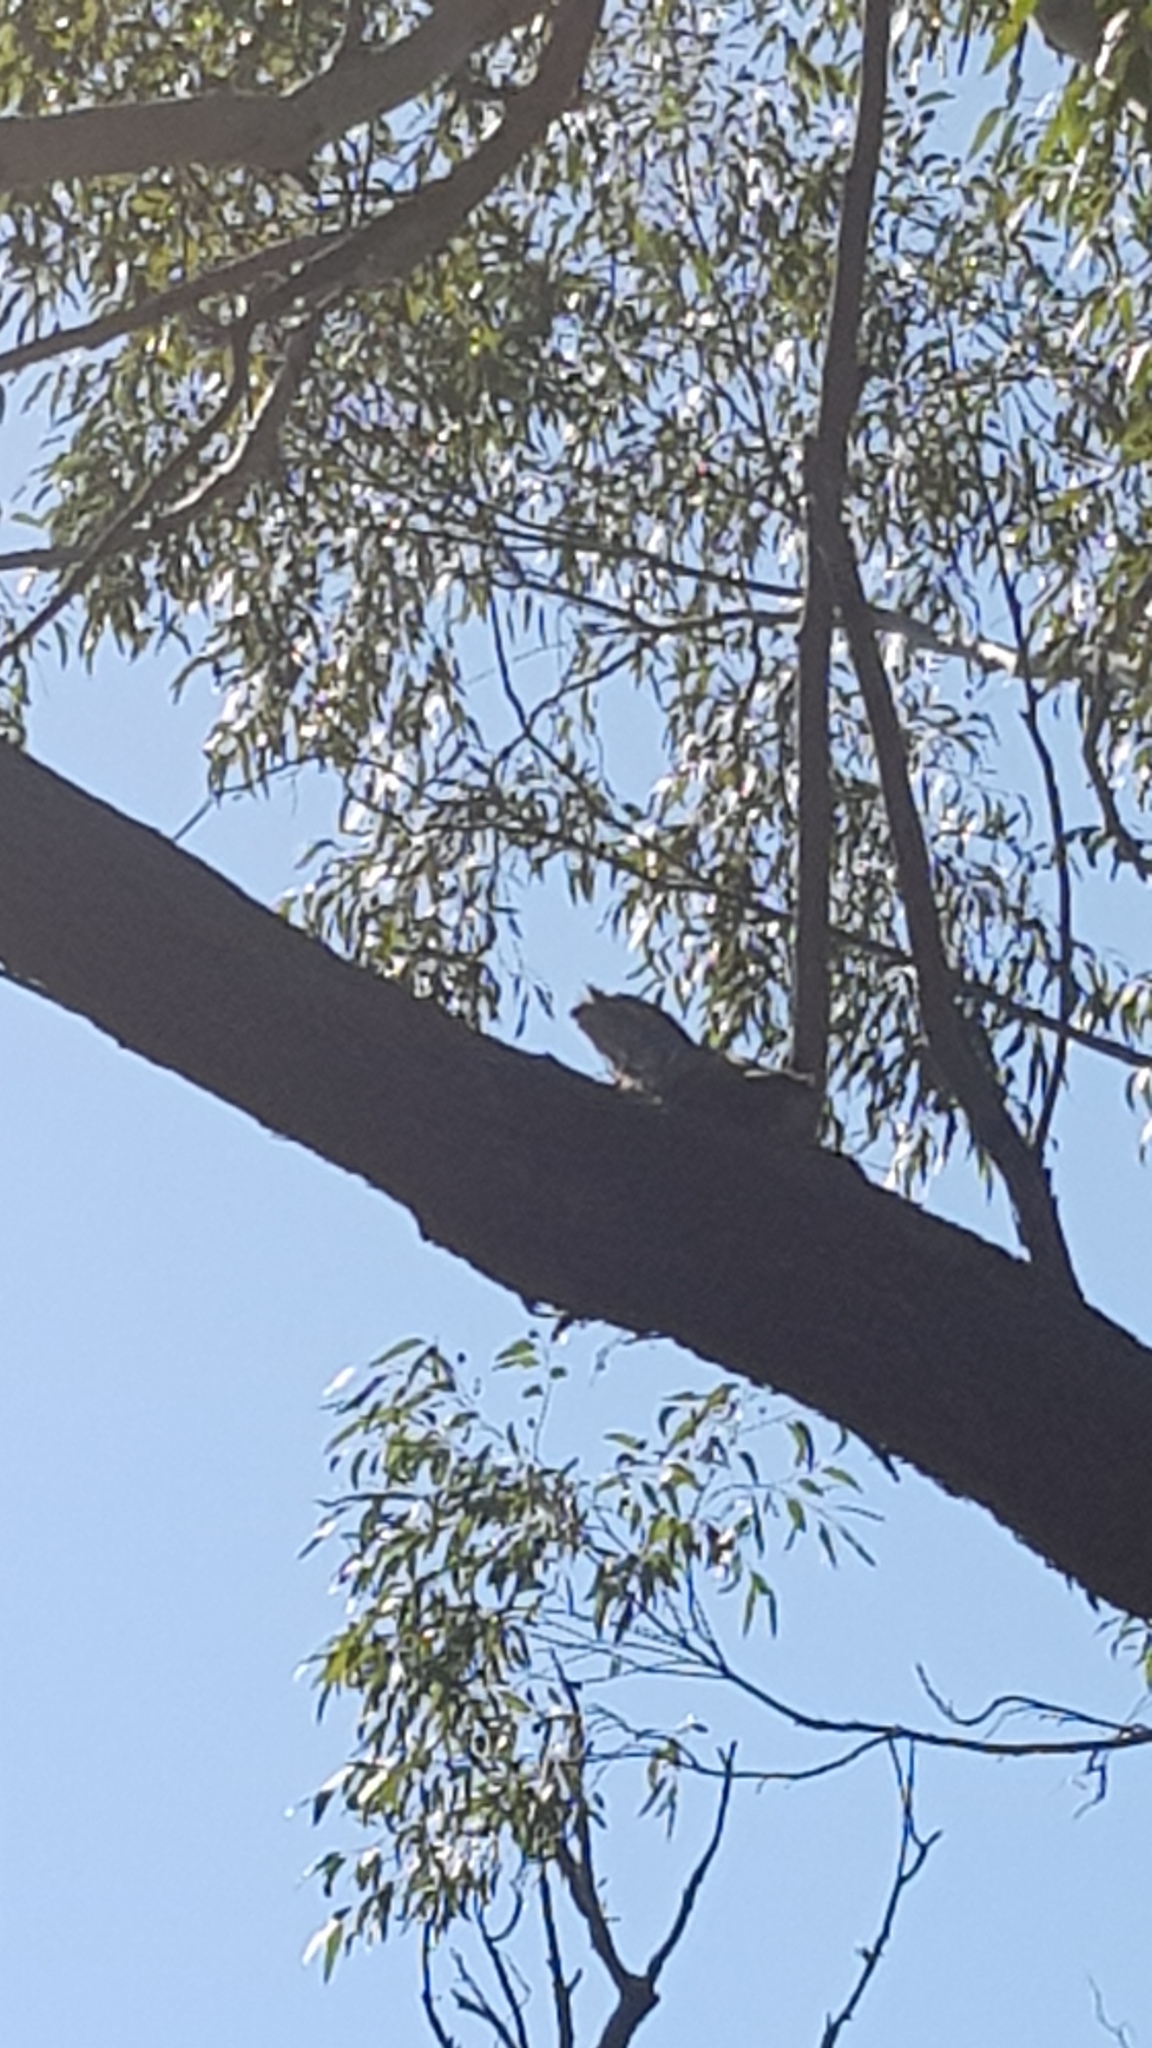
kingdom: Animalia
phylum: Chordata
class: Aves
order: Caprimulgiformes
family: Podargidae
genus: Podargus
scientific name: Podargus strigoides
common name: Tawny frogmouth
